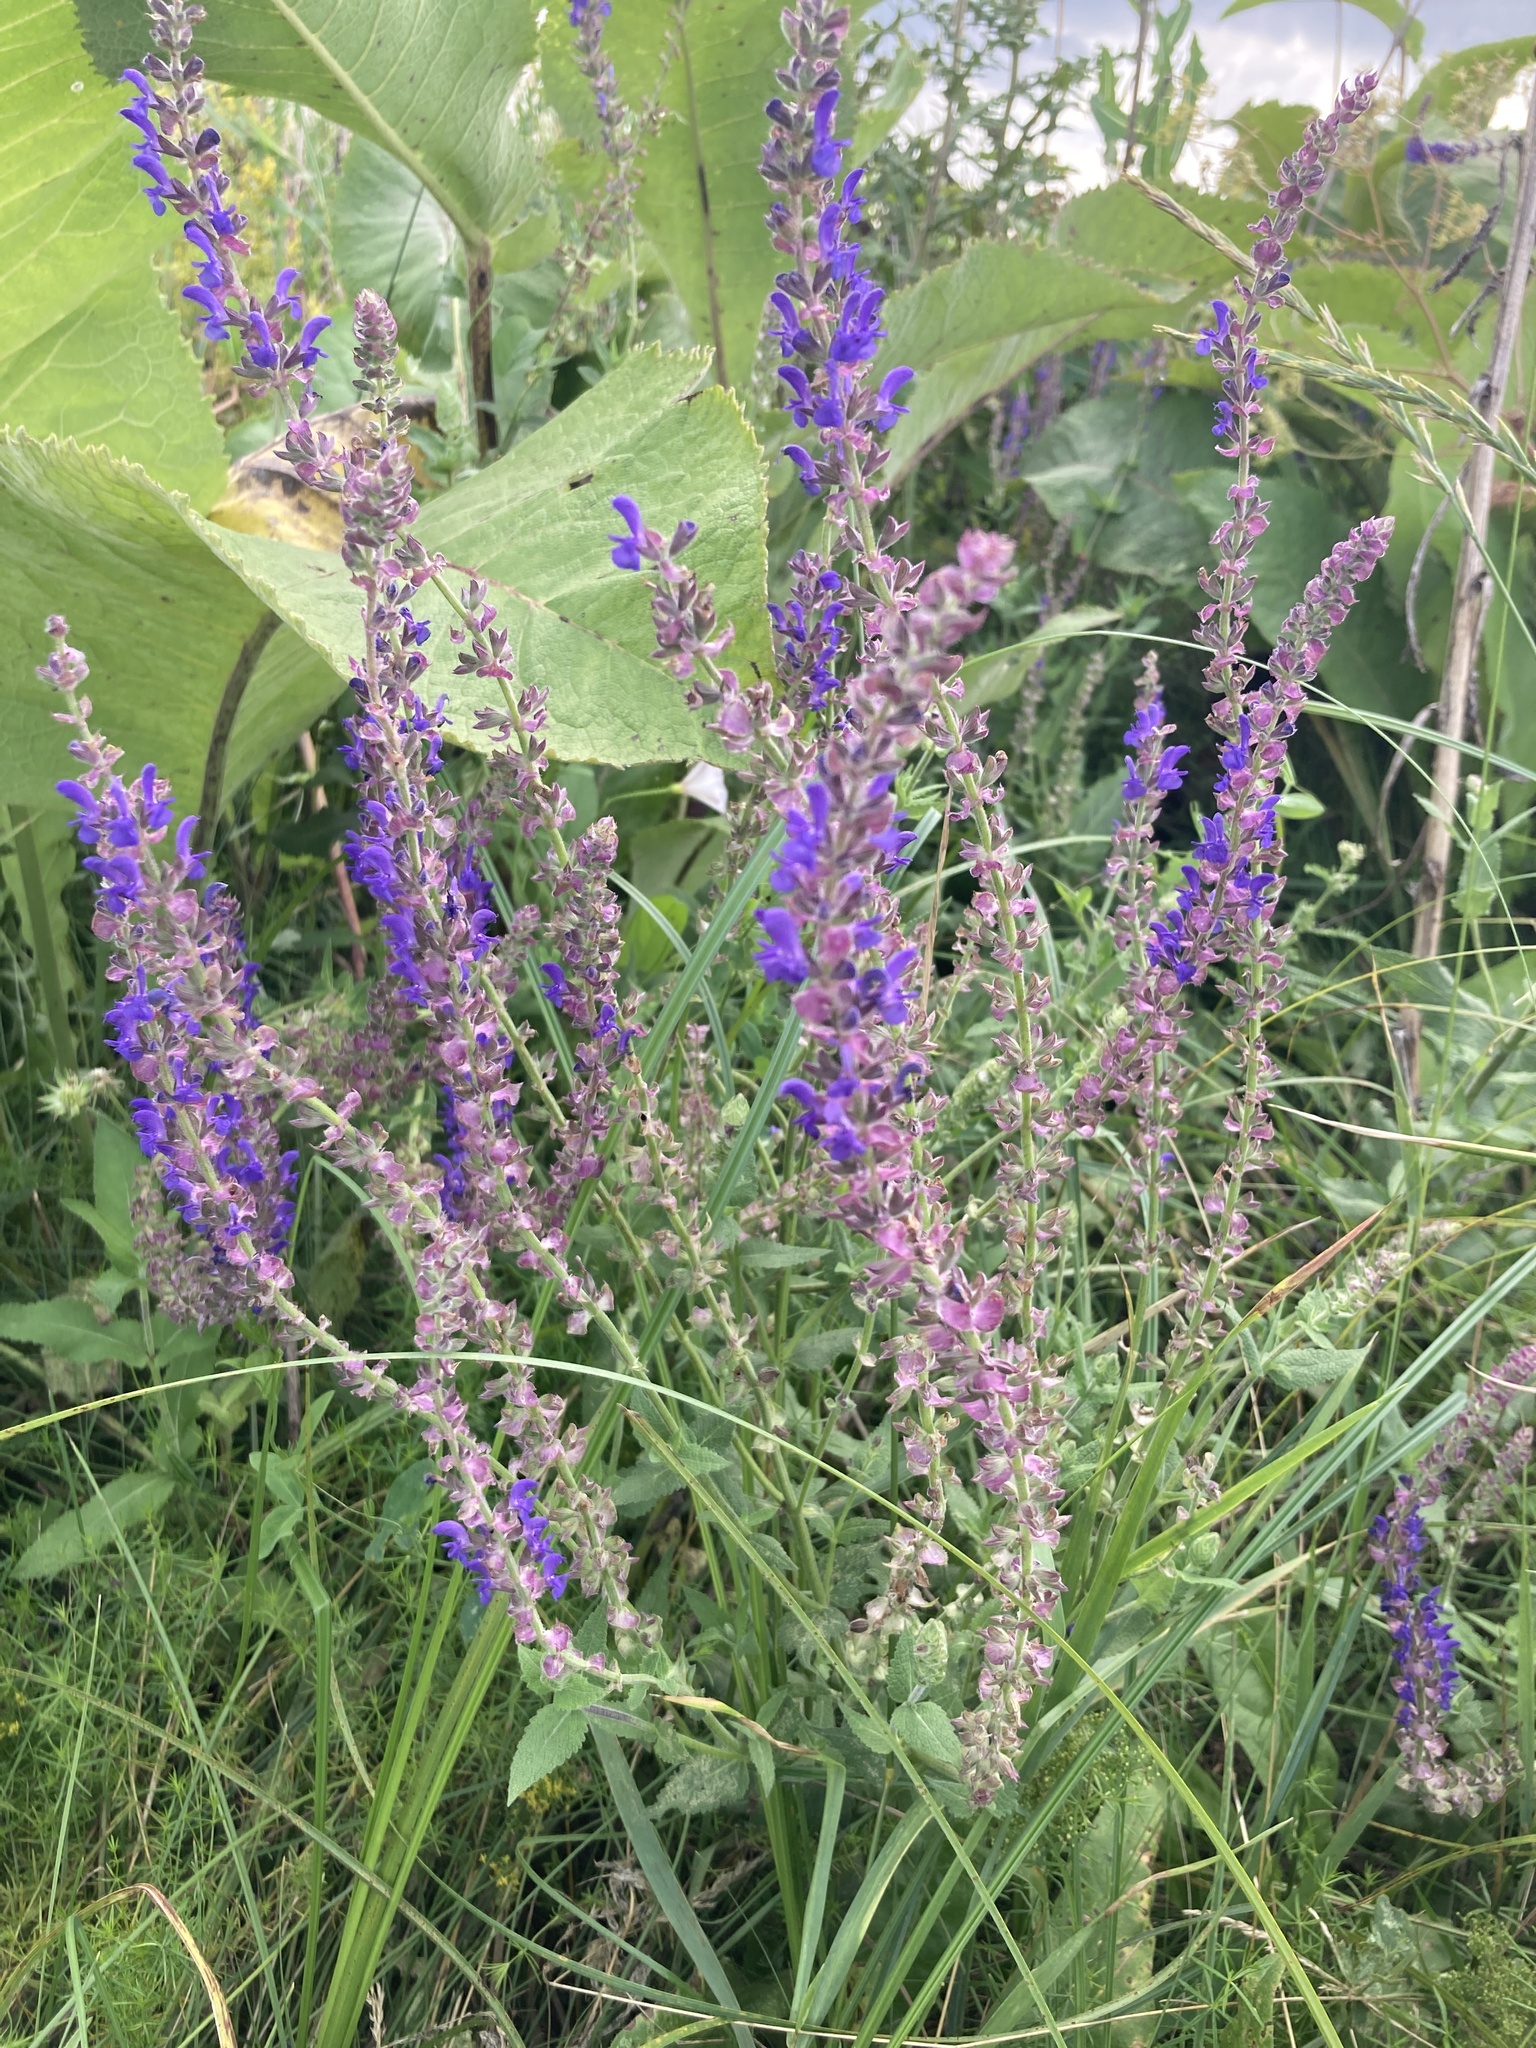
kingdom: Plantae
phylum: Tracheophyta
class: Magnoliopsida
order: Lamiales
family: Lamiaceae
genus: Salvia
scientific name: Salvia nemorosa
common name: Balkan clary
